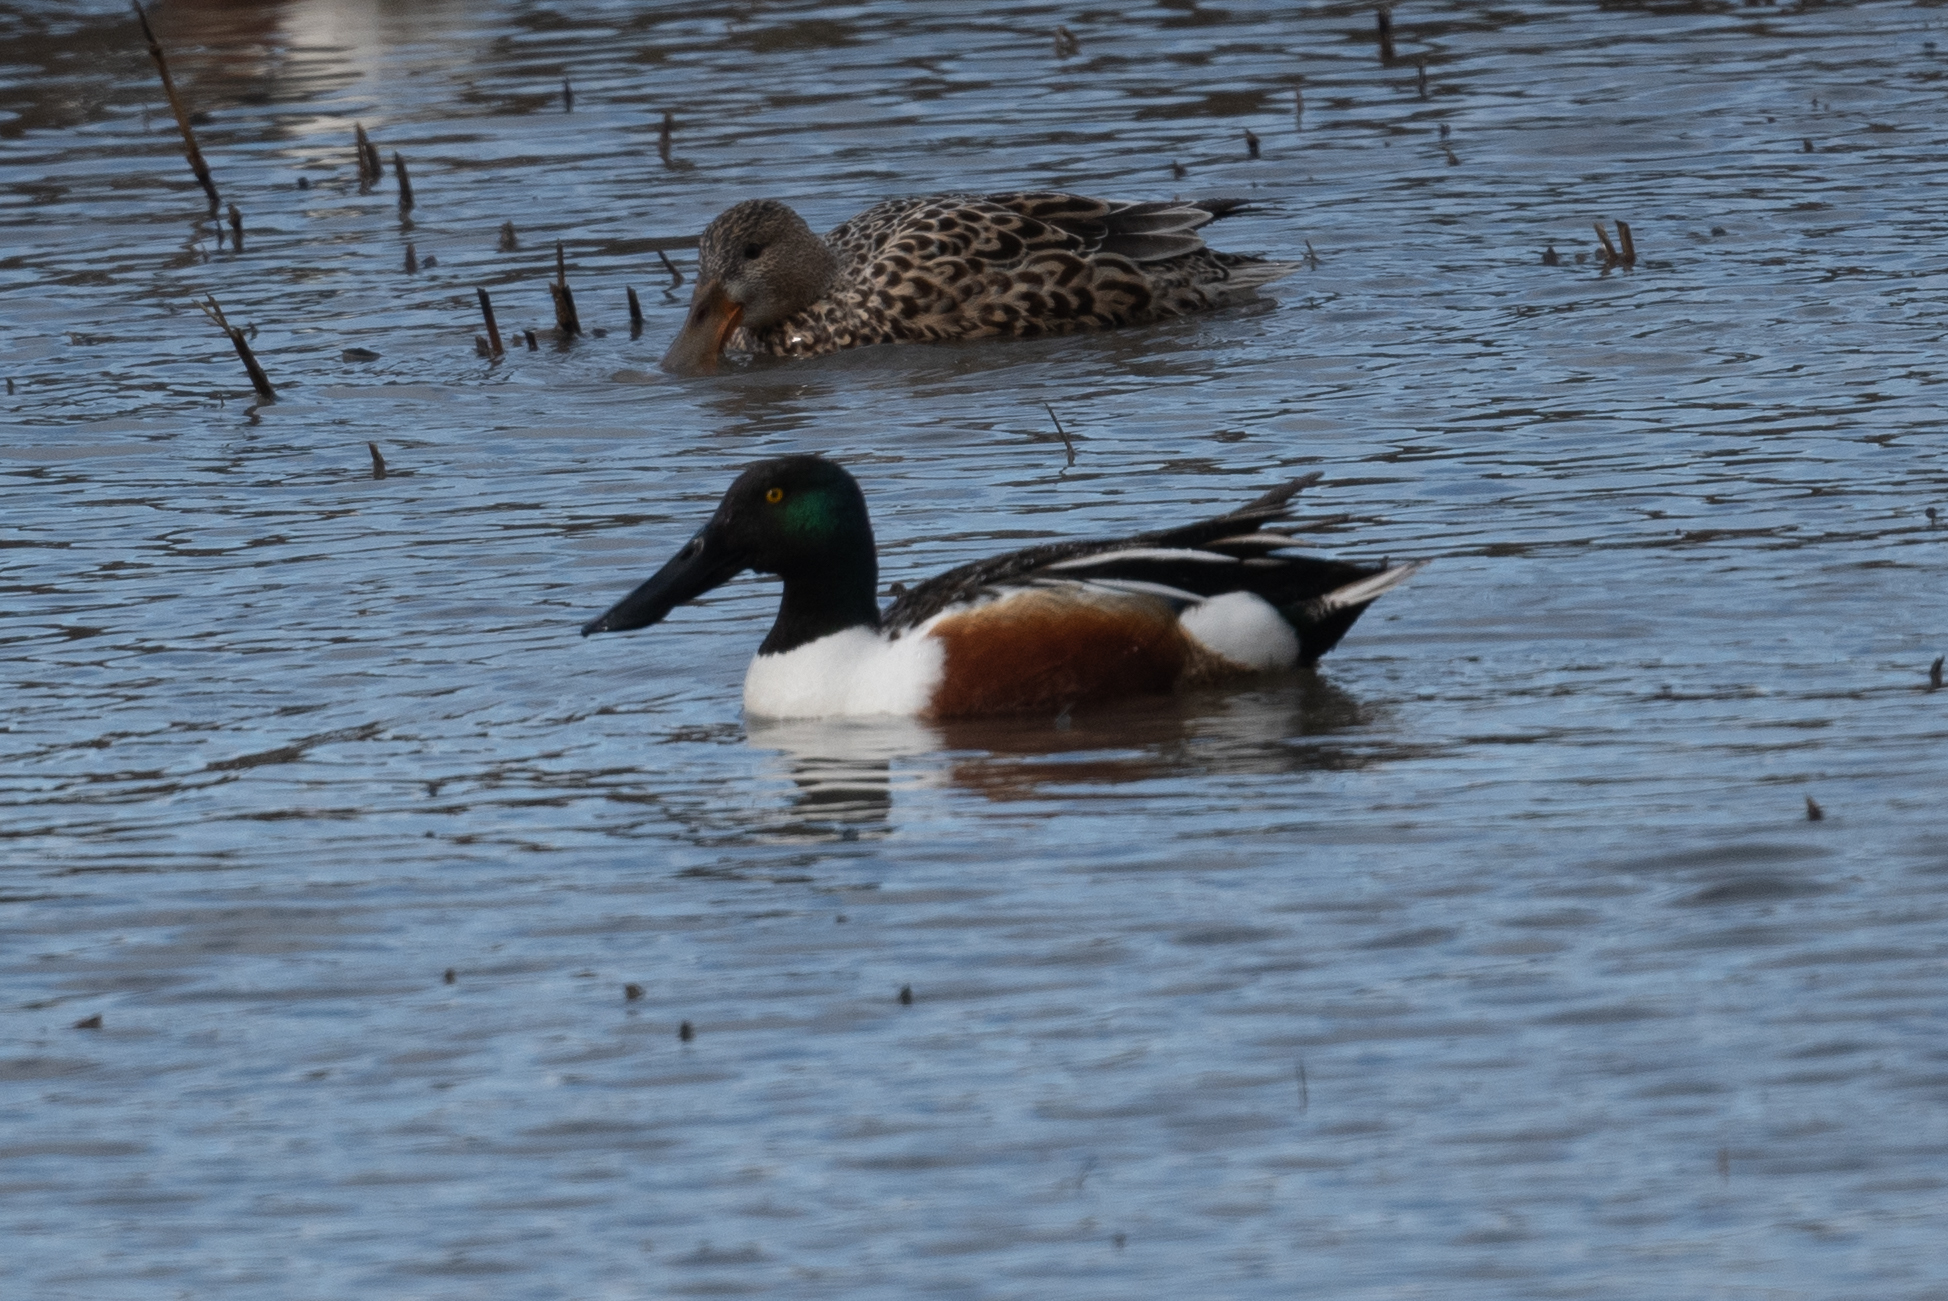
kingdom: Animalia
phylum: Chordata
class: Aves
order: Anseriformes
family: Anatidae
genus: Spatula
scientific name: Spatula clypeata
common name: Northern shoveler
